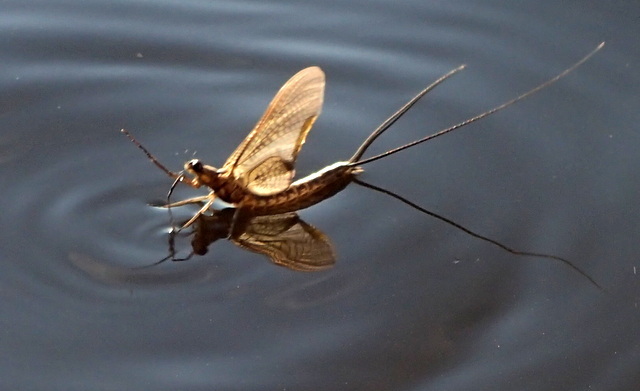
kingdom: Animalia
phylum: Arthropoda
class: Insecta
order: Ephemeroptera
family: Ephemeridae
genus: Hexagenia
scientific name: Hexagenia orlando
